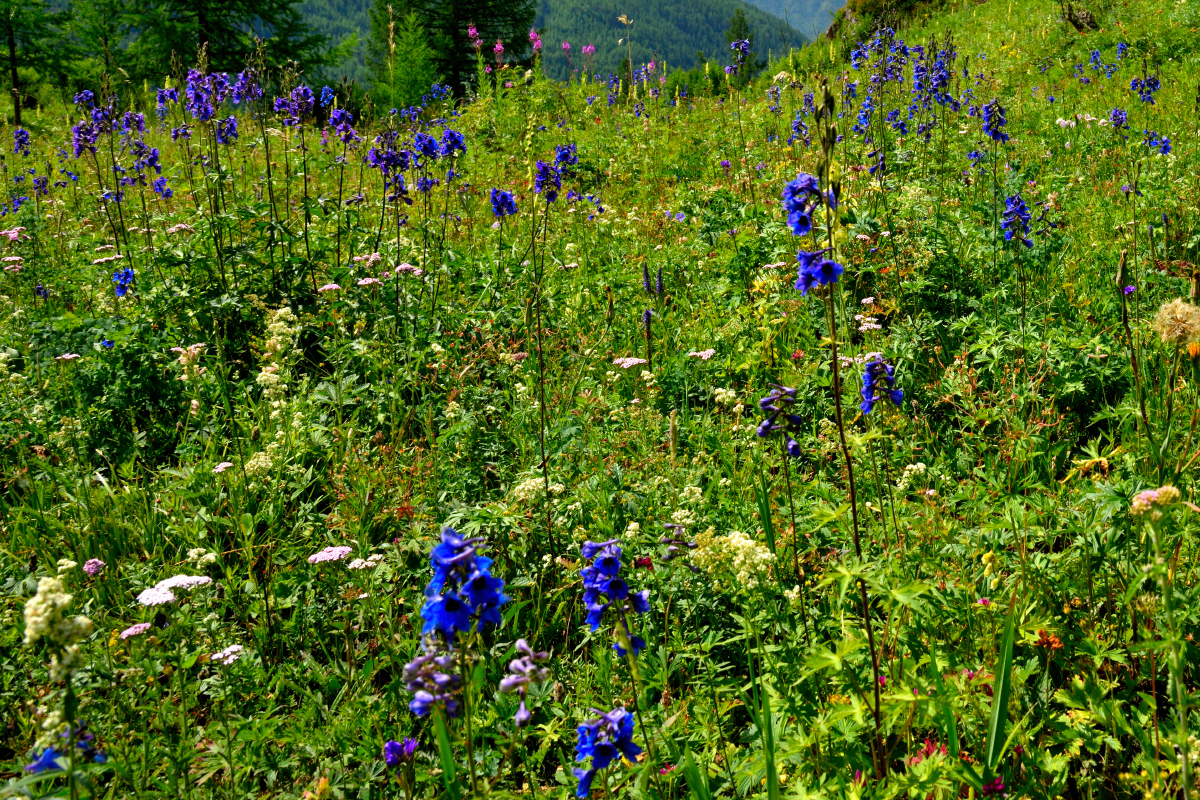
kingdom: Plantae
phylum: Tracheophyta
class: Magnoliopsida
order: Ranunculales
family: Ranunculaceae
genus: Delphinium
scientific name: Delphinium elatum
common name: Candle larkspur
